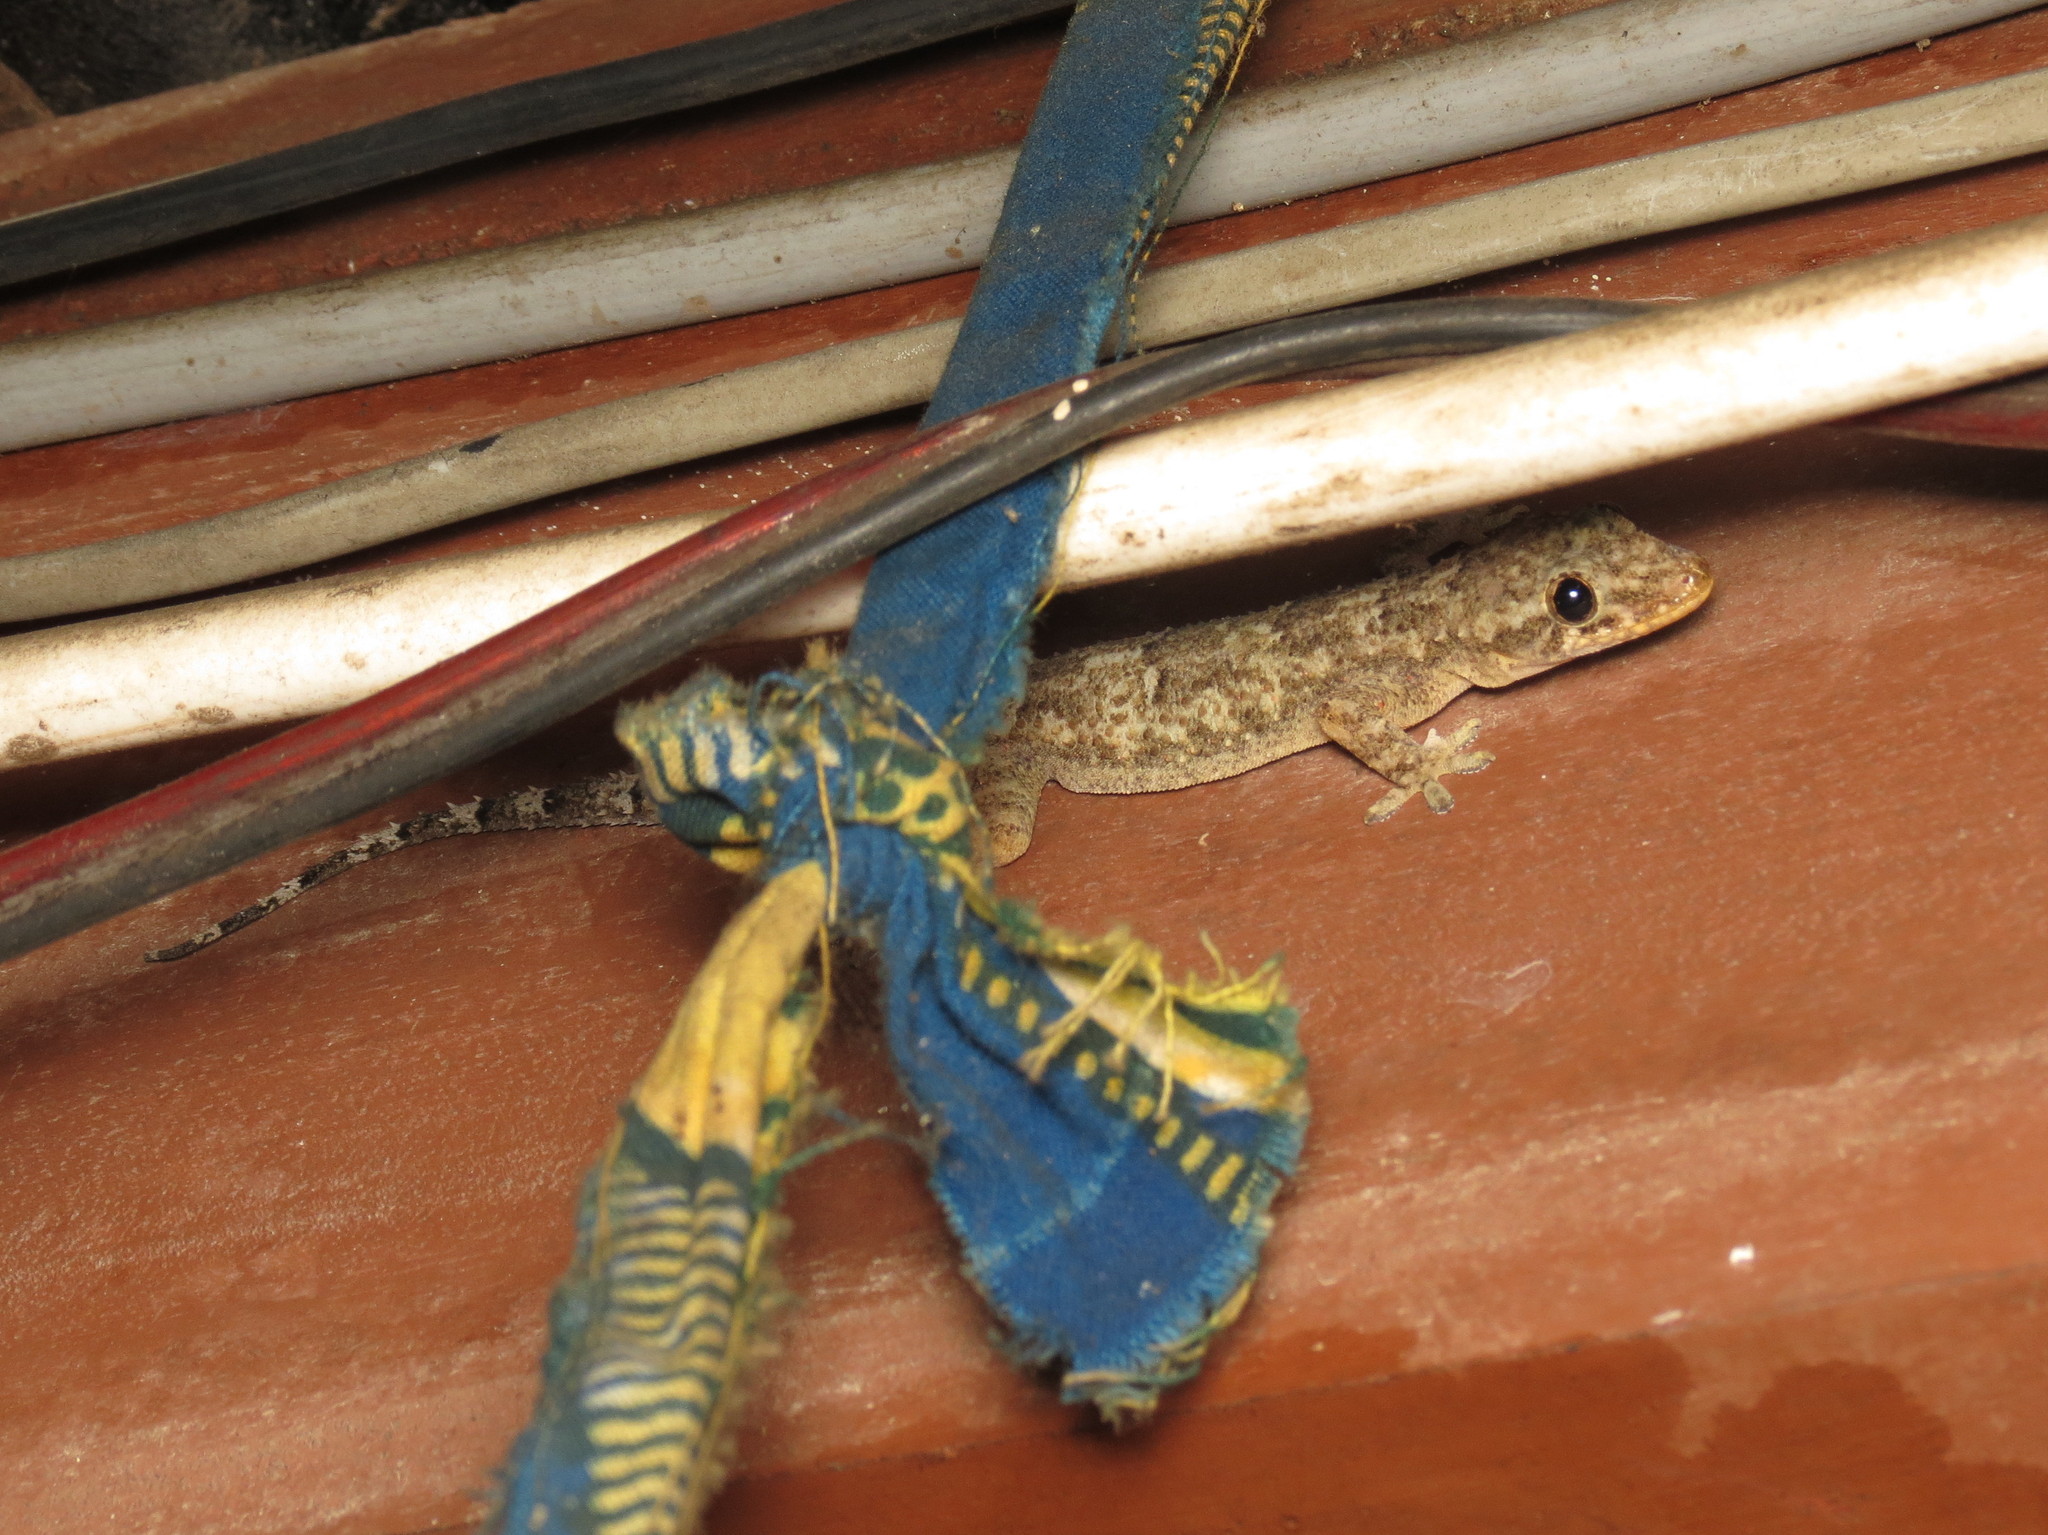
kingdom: Animalia
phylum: Chordata
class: Squamata
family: Gekkonidae
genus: Hemidactylus
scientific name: Hemidactylus mabouia
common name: House gecko
